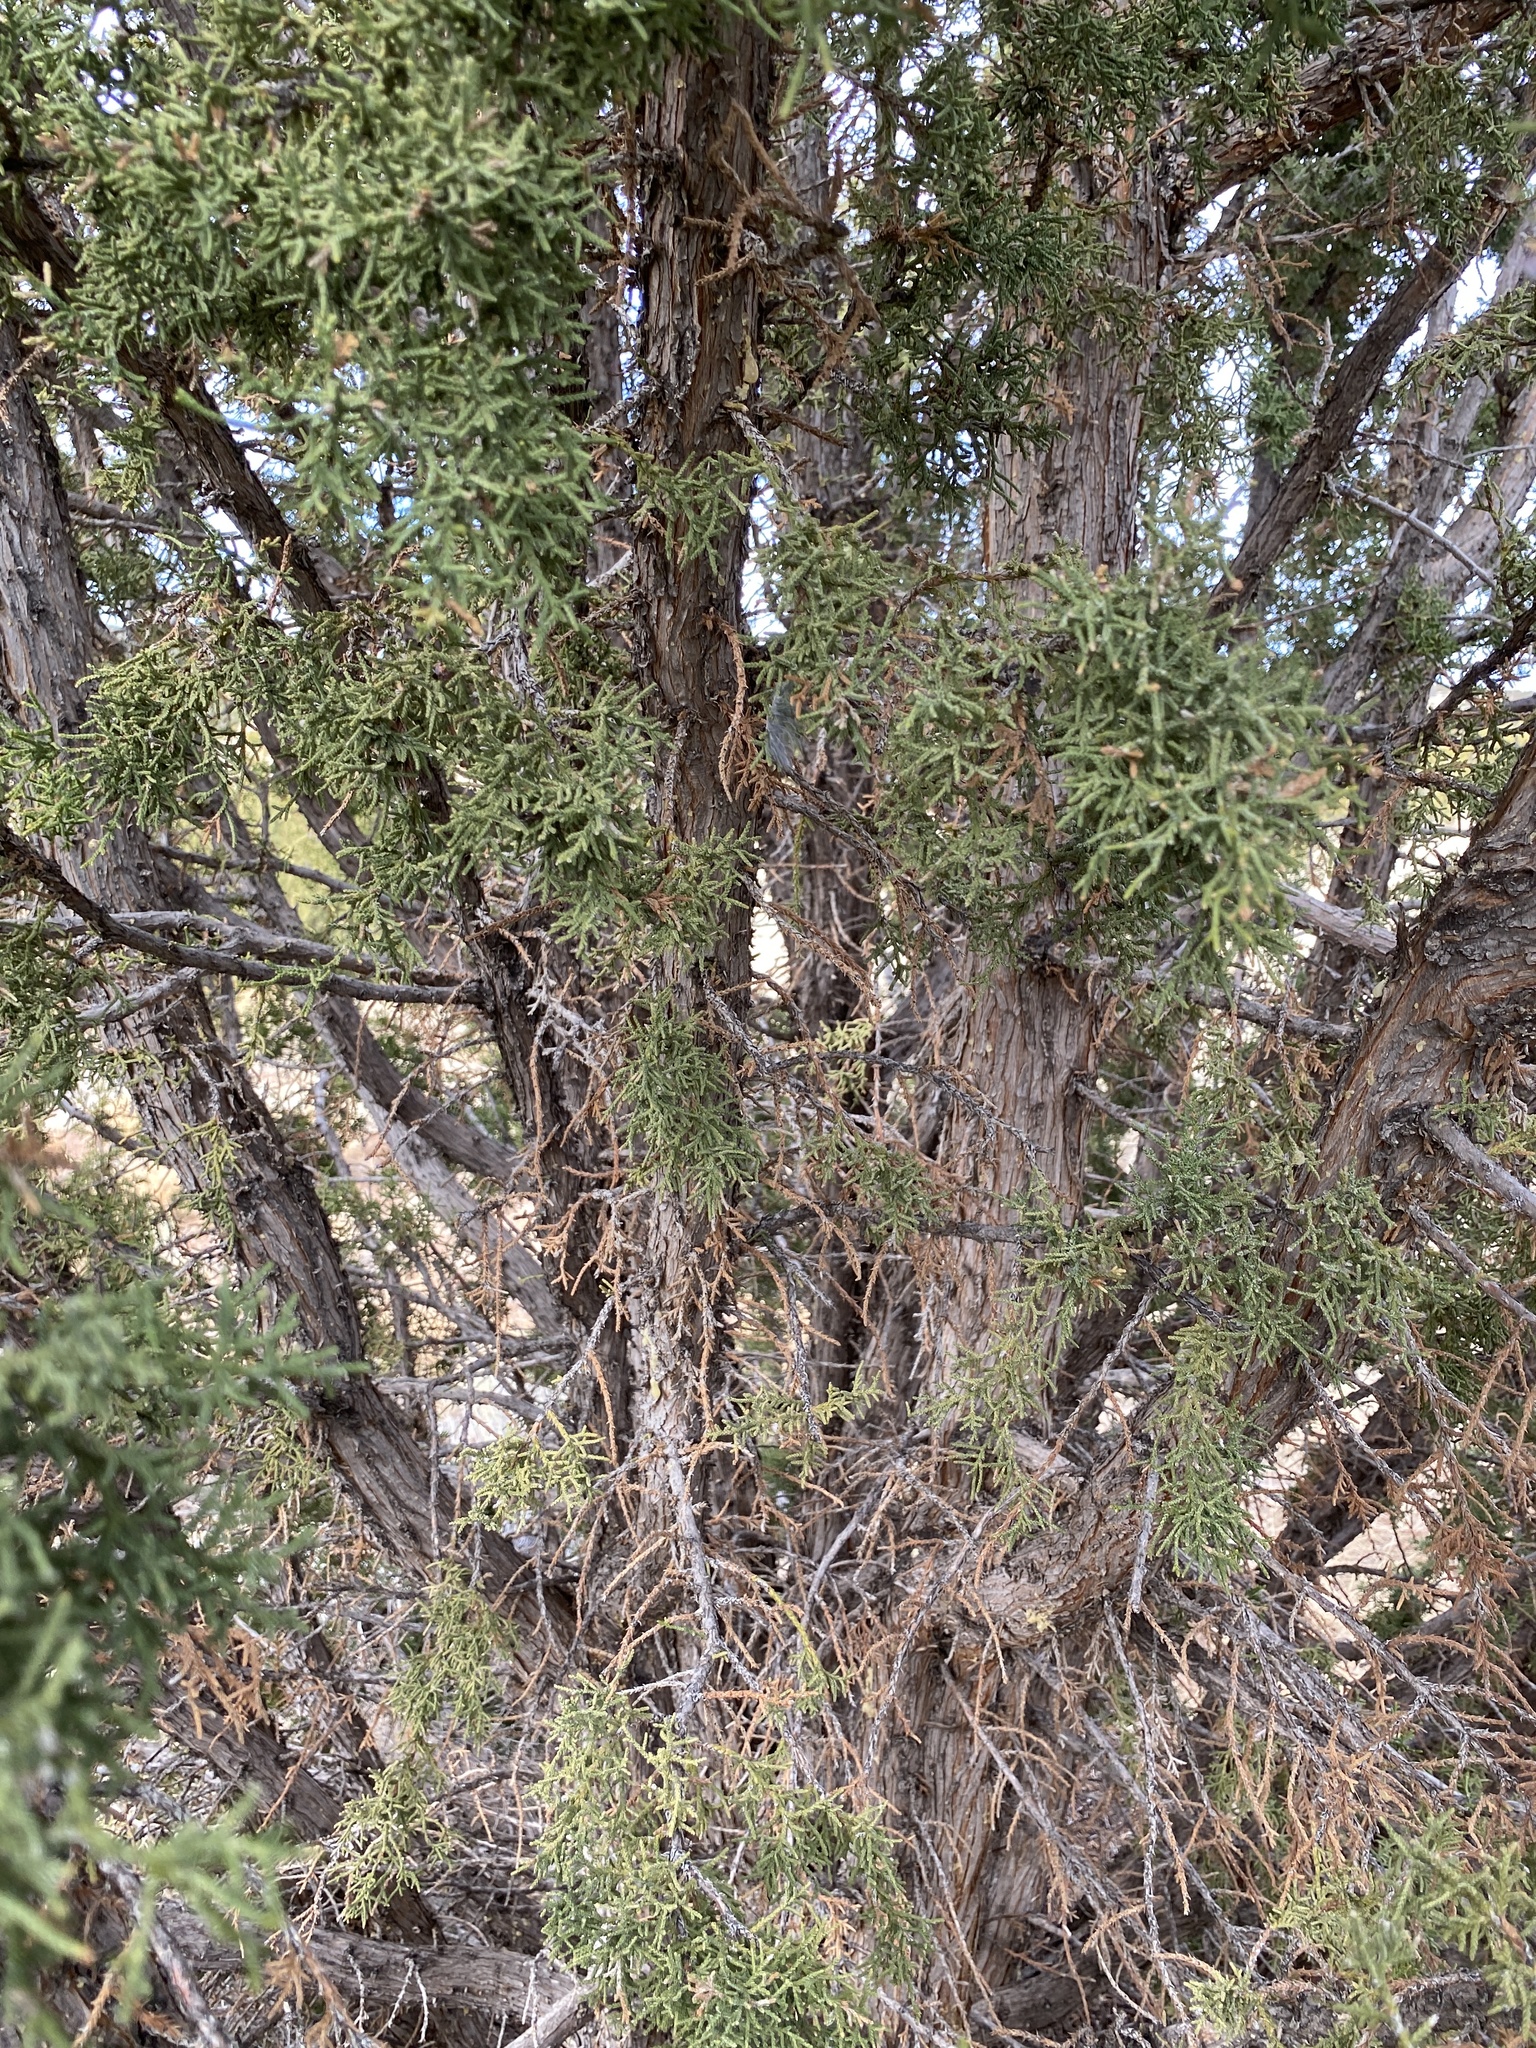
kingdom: Plantae
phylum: Tracheophyta
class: Pinopsida
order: Pinales
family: Cupressaceae
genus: Juniperus
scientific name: Juniperus monosperma
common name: One-seed juniper
